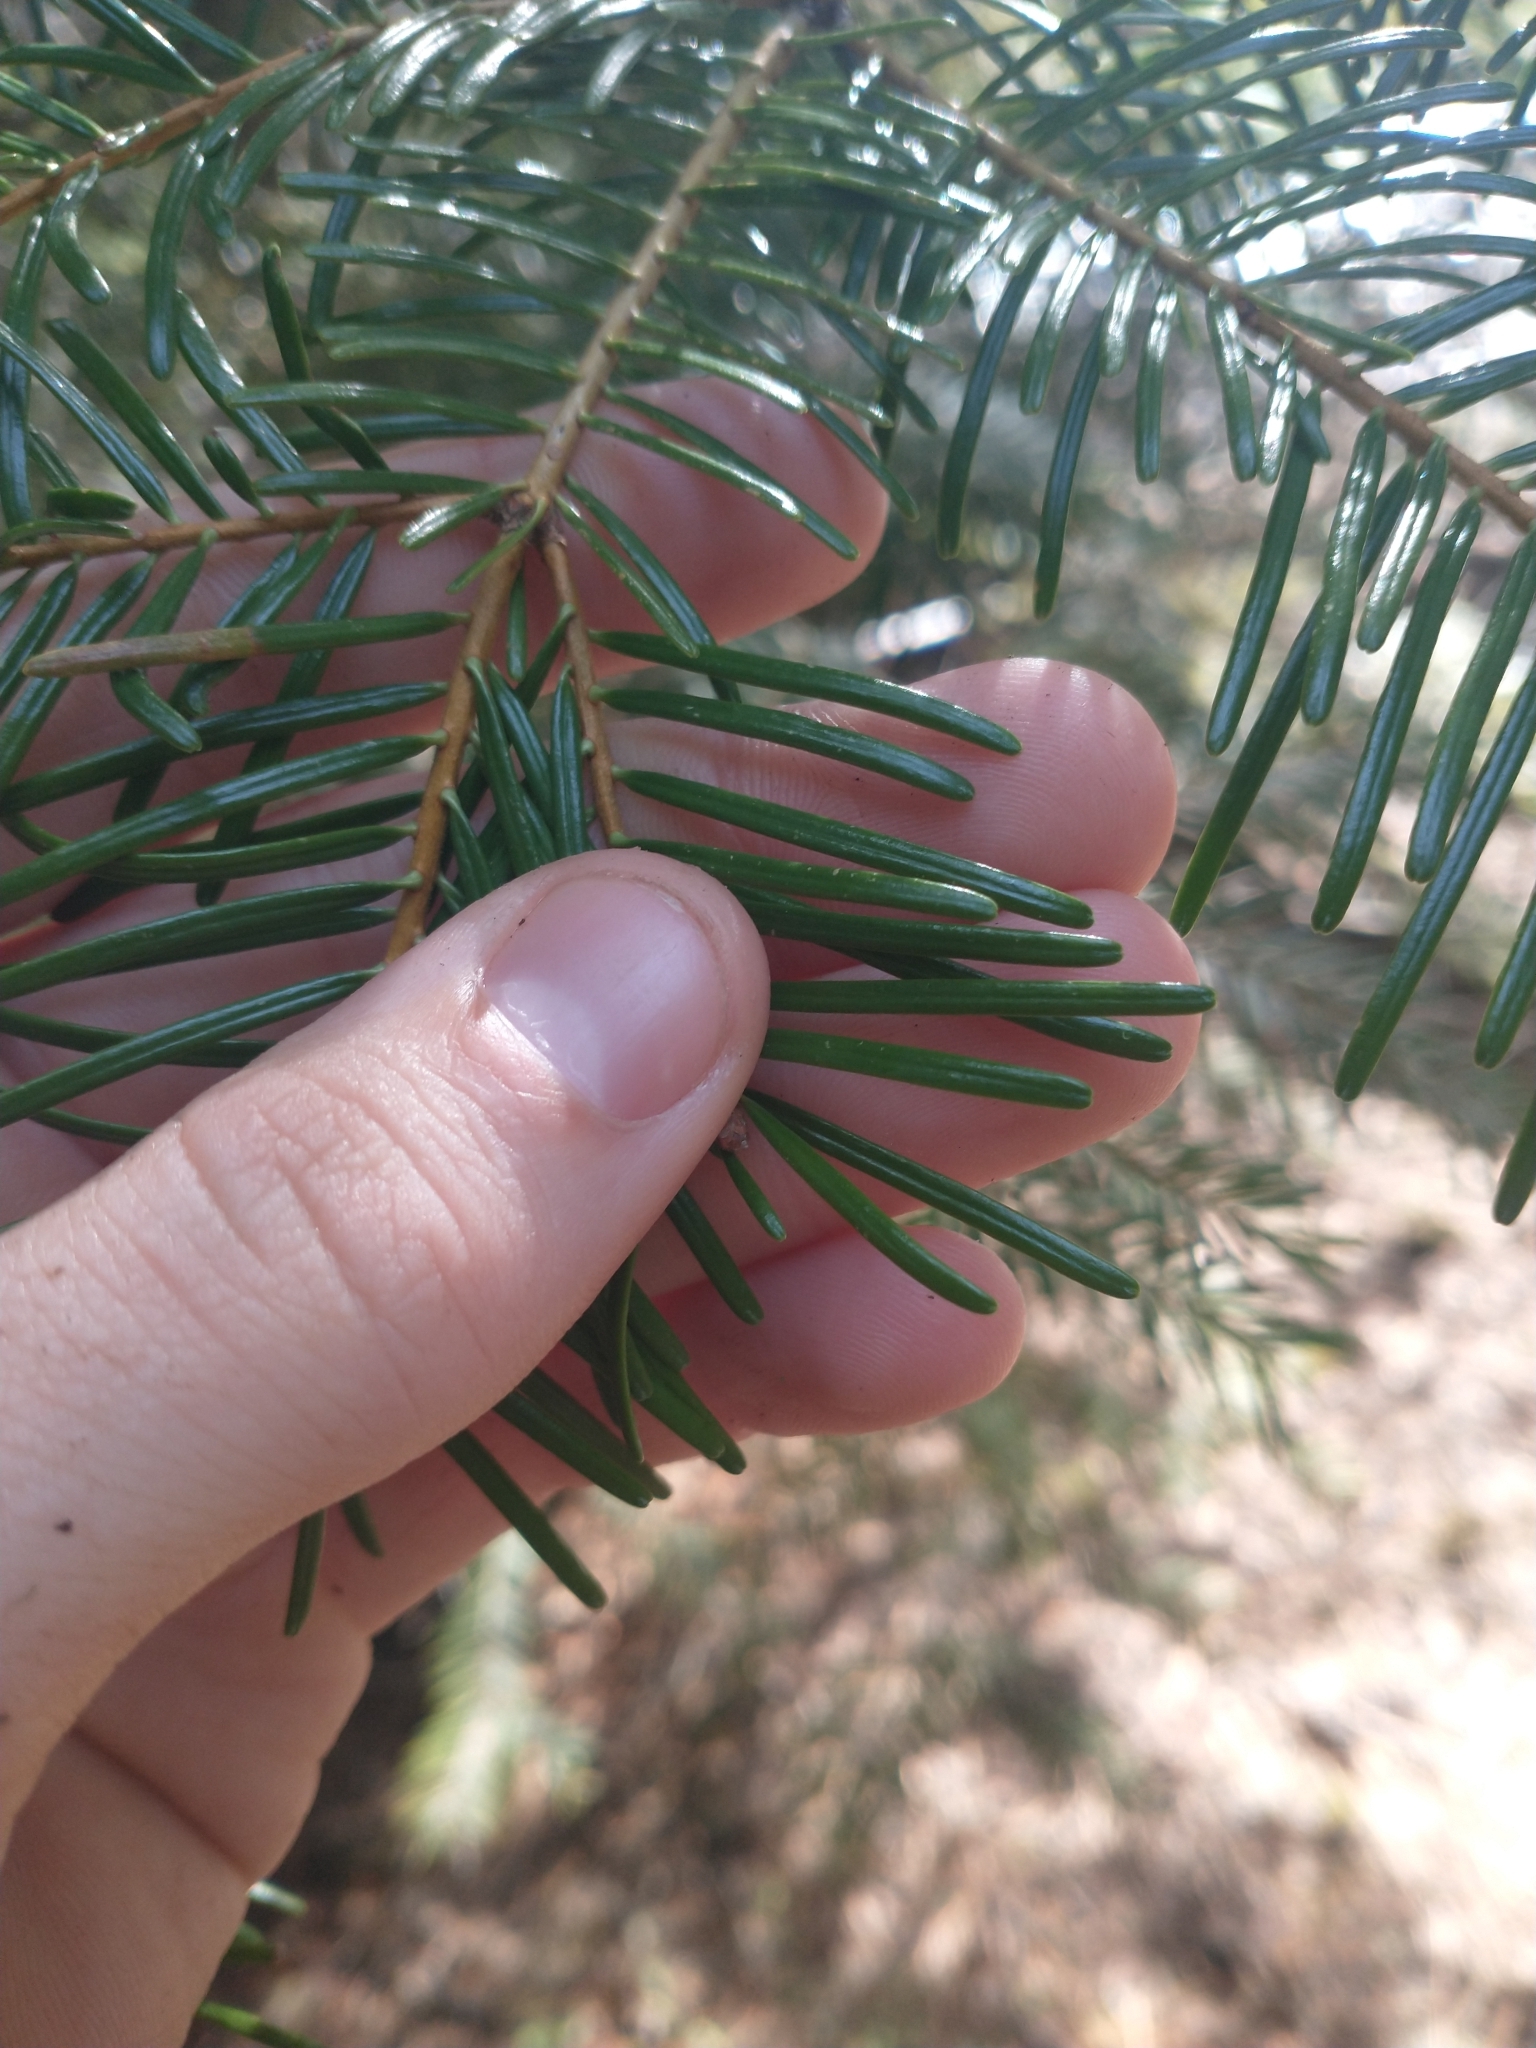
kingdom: Plantae
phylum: Tracheophyta
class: Pinopsida
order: Pinales
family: Pinaceae
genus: Abies
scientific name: Abies concolor
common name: Colorado fir
